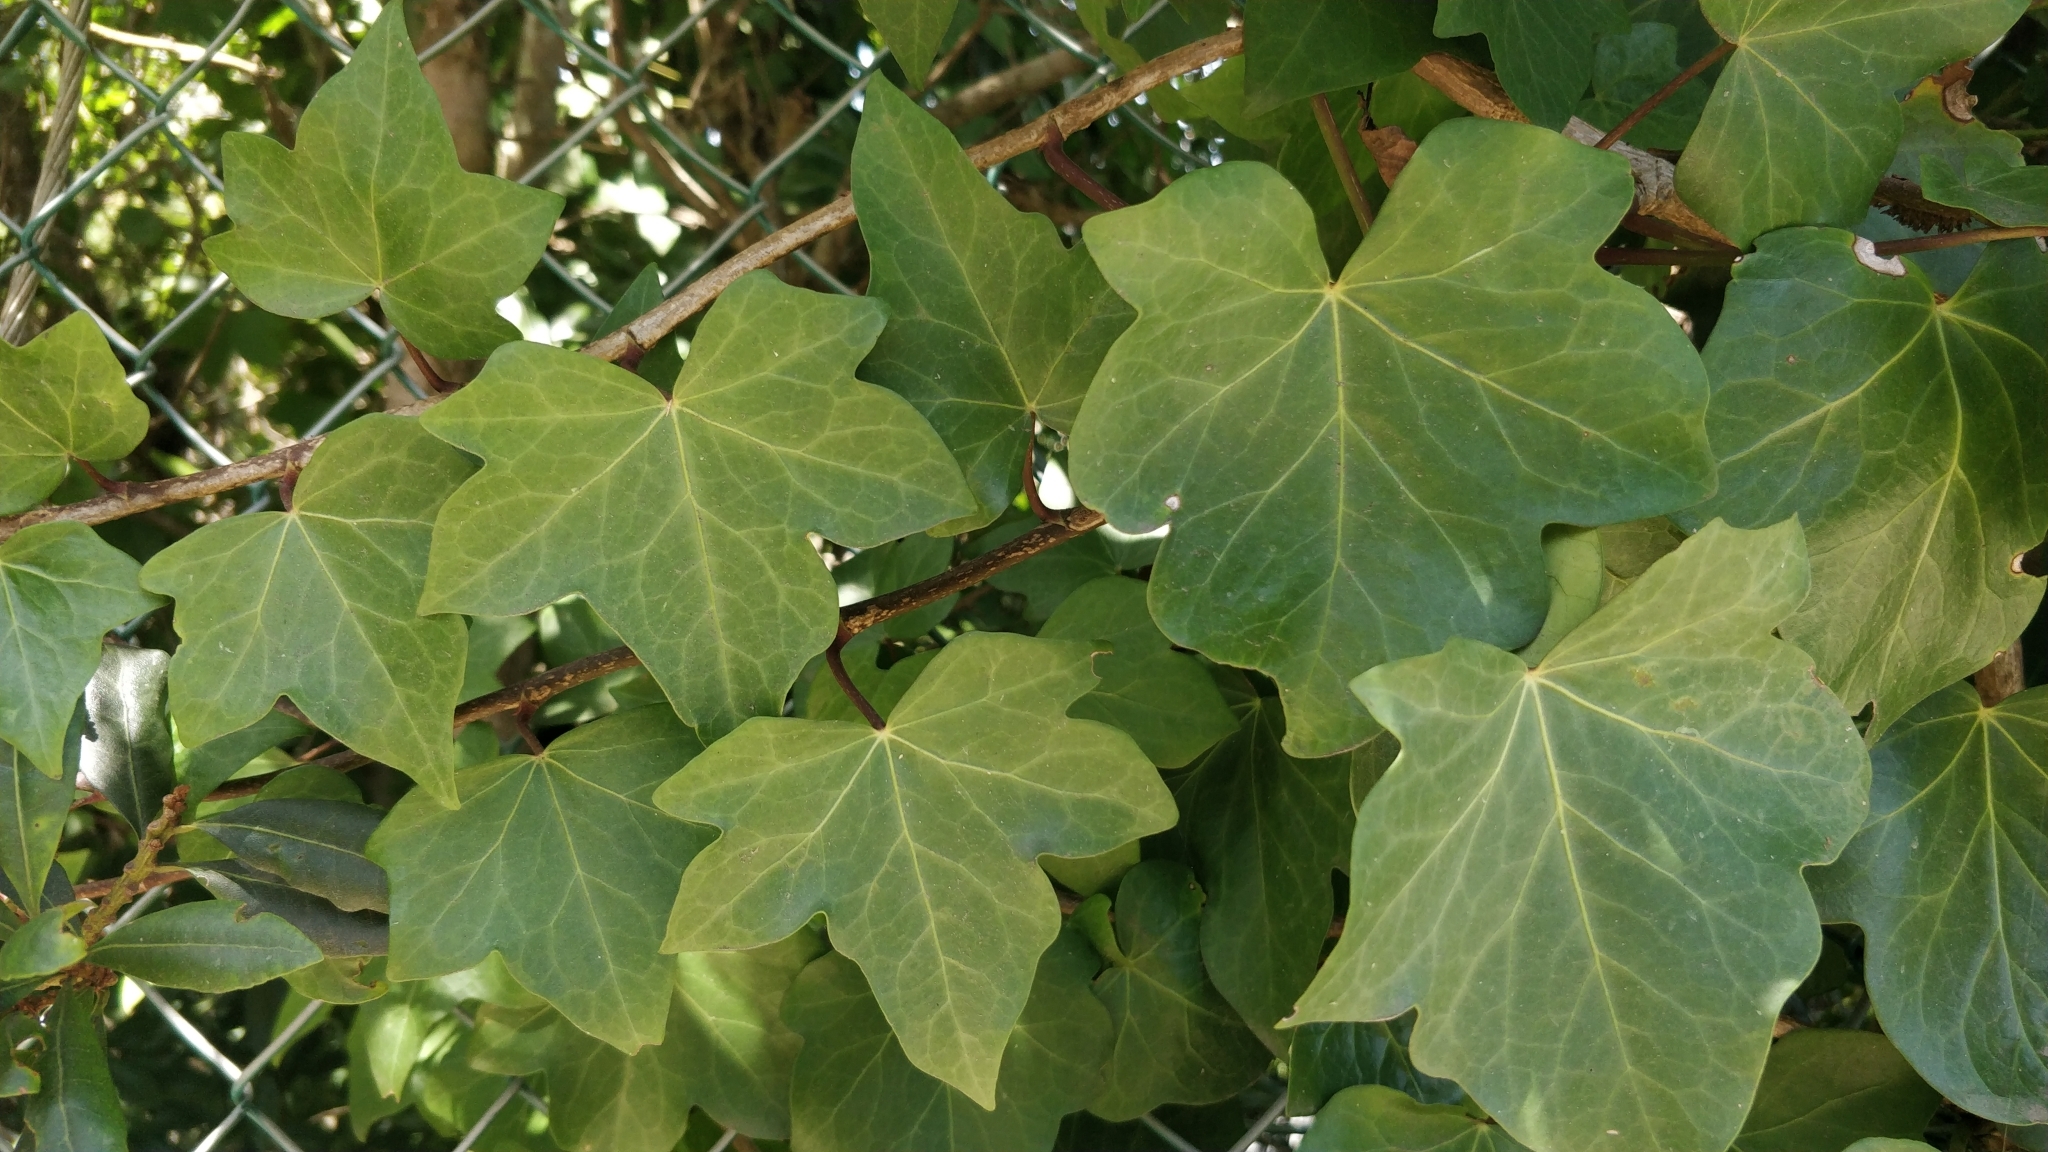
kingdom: Plantae
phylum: Tracheophyta
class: Magnoliopsida
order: Apiales
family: Araliaceae
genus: Hedera
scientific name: Hedera canariensis
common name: Madeira ivy
